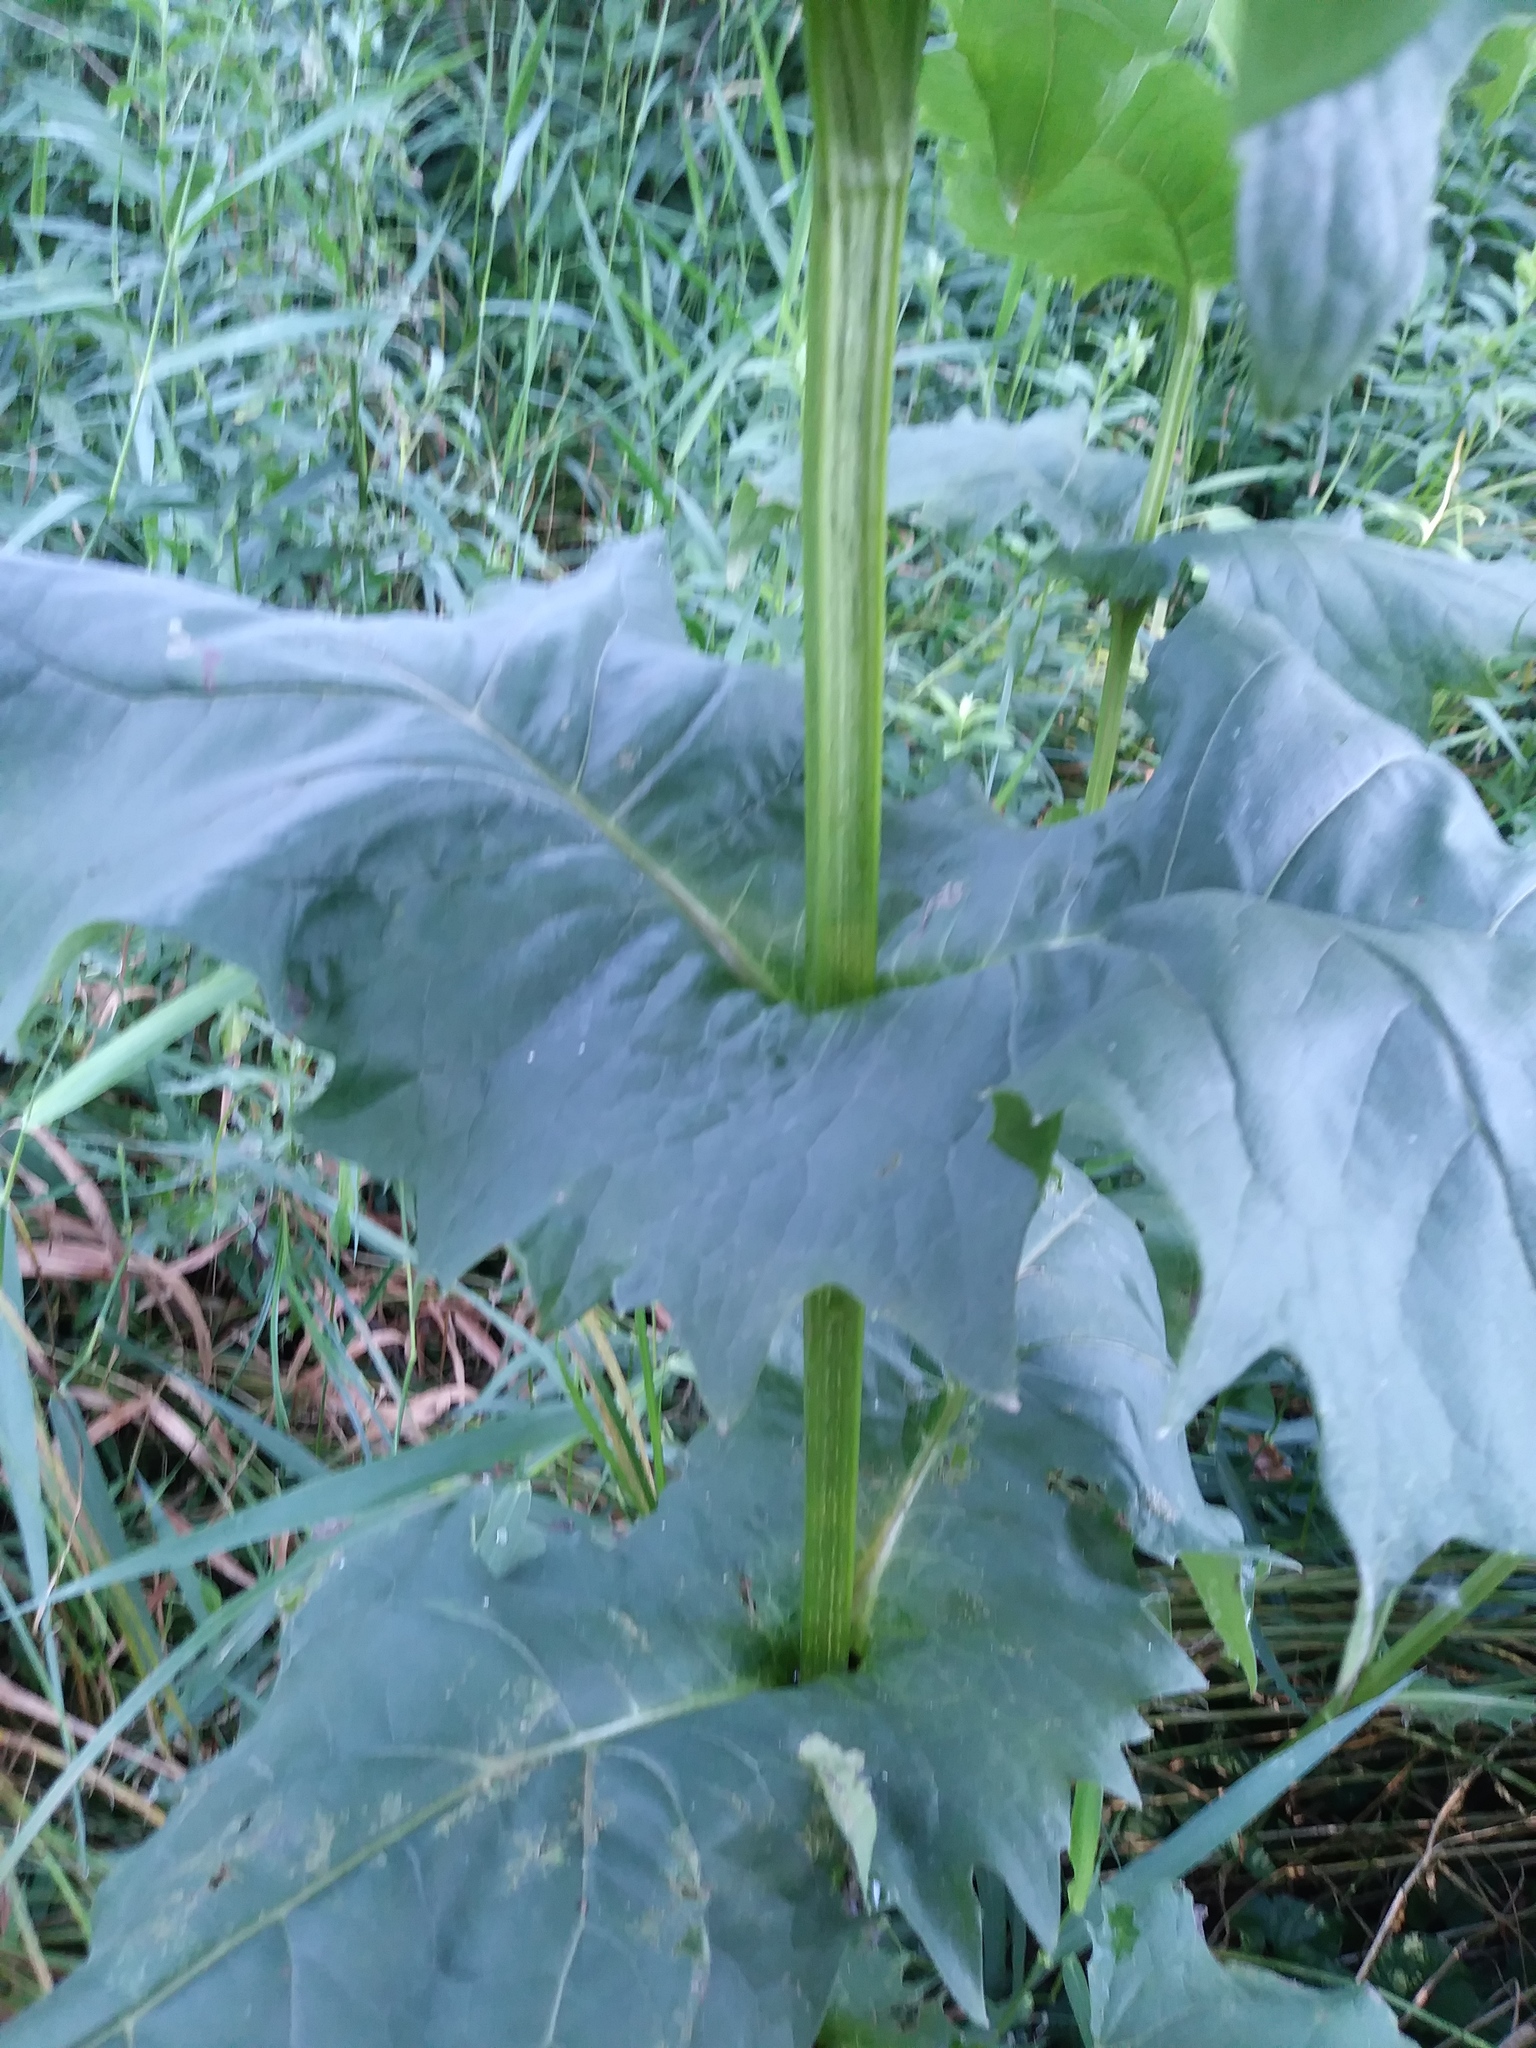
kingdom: Plantae
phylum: Tracheophyta
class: Magnoliopsida
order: Asterales
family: Asteraceae
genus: Silphium
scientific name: Silphium perfoliatum
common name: Cup-plant
